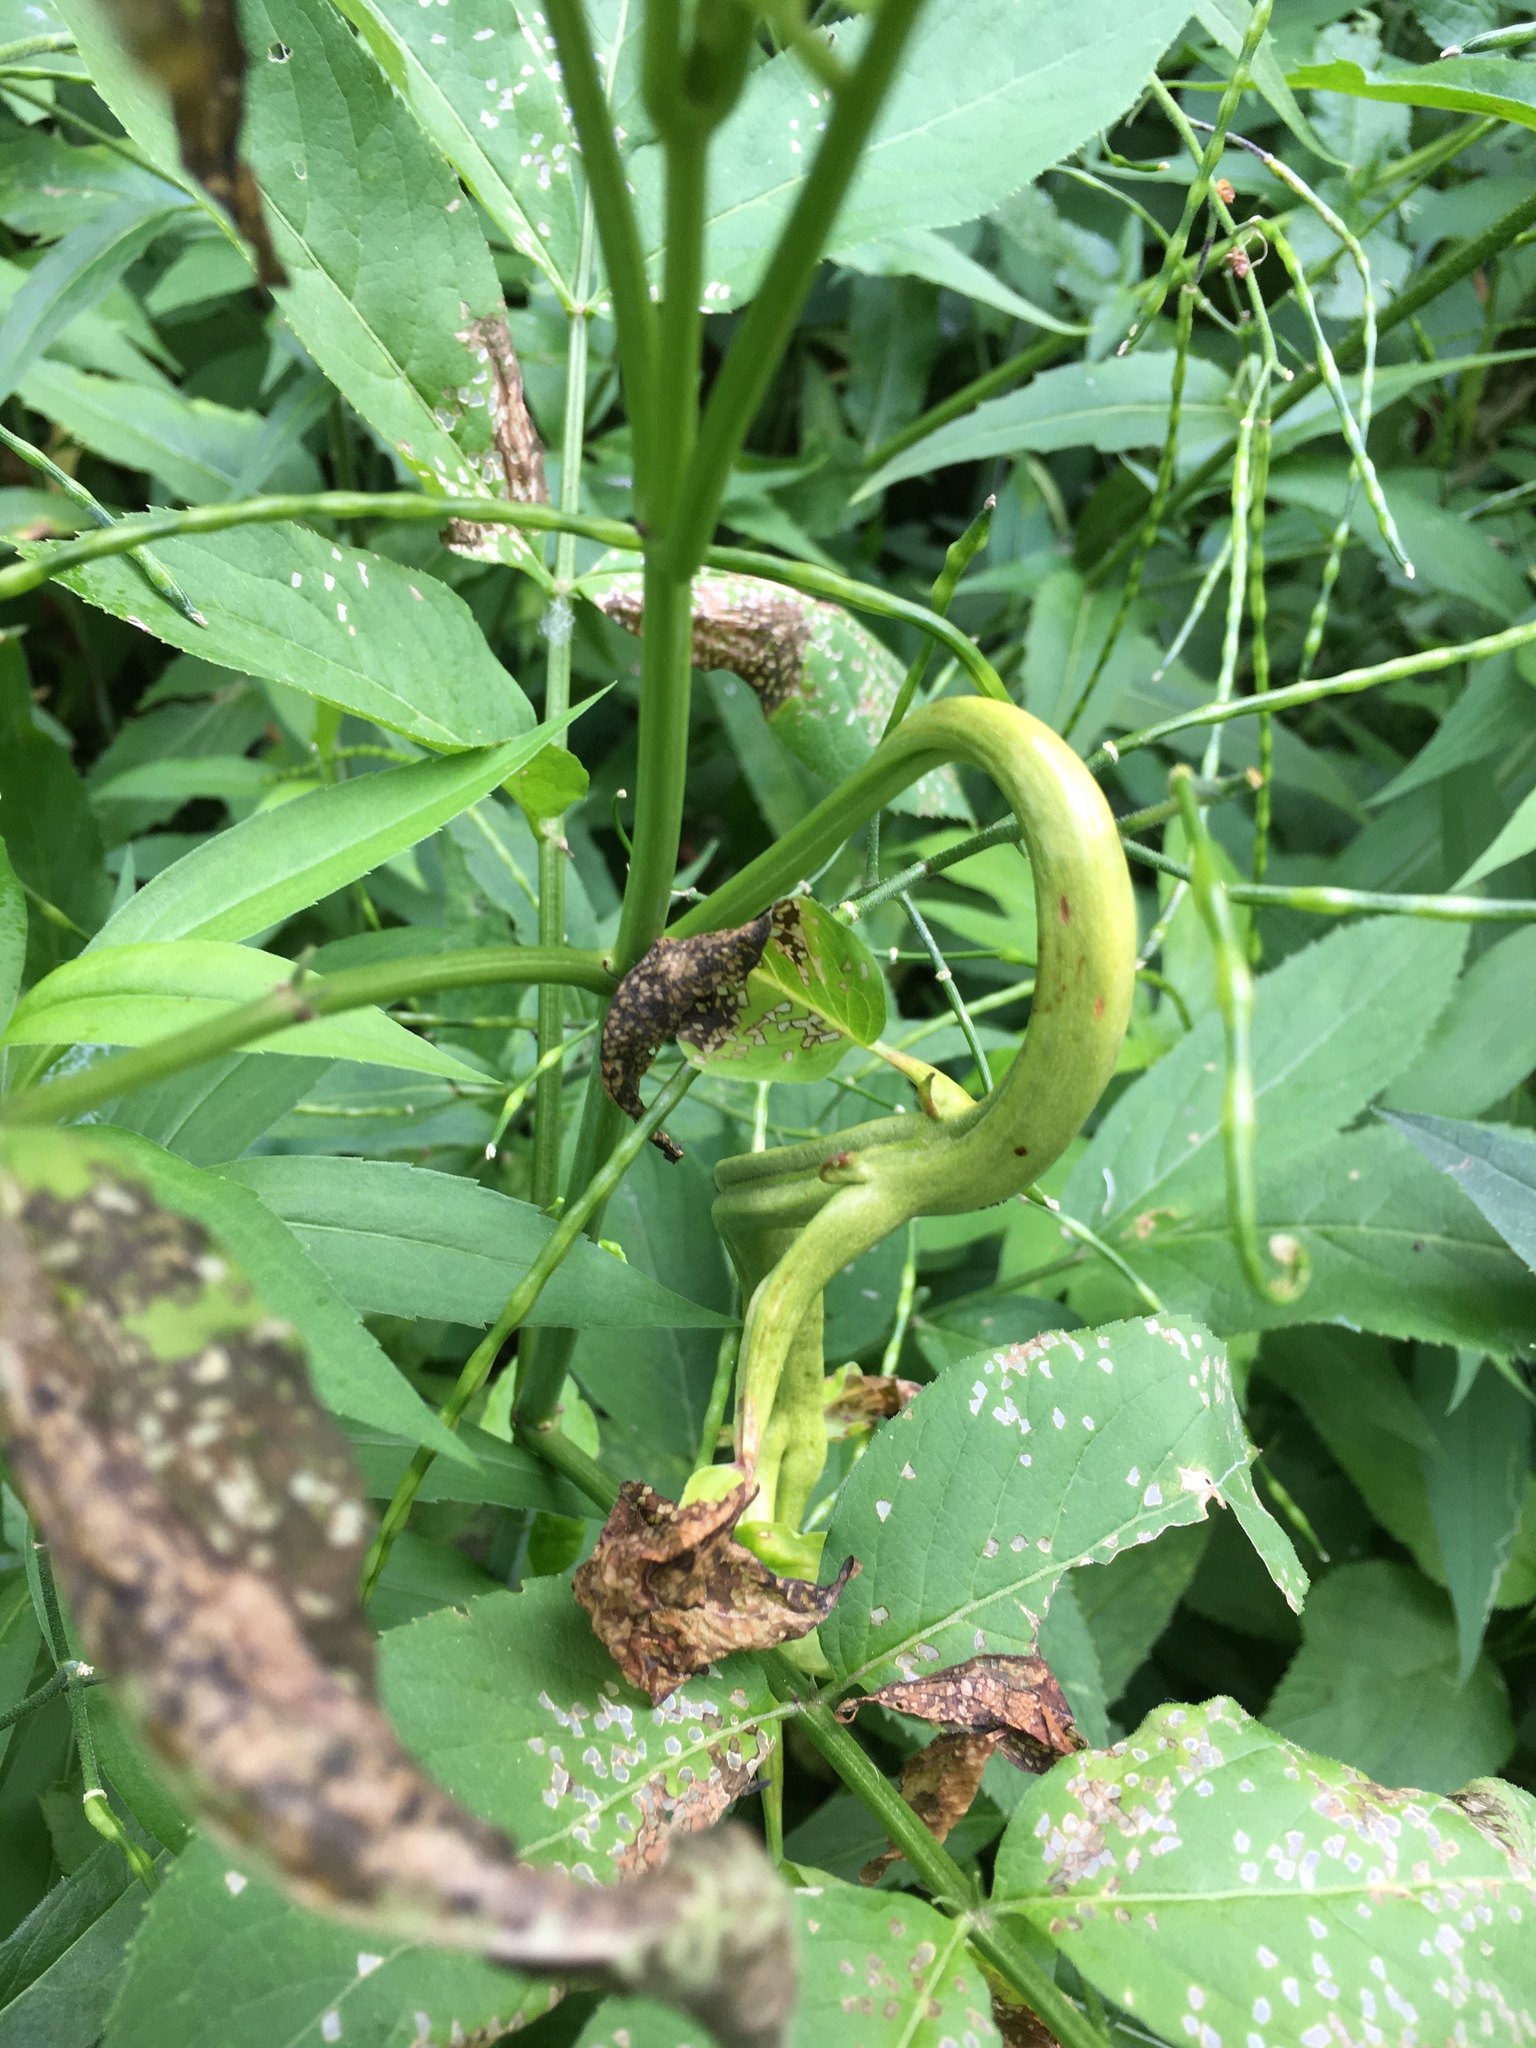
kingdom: Fungi
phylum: Basidiomycota
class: Pucciniomycetes
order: Pucciniales
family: Pucciniaceae
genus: Puccinia
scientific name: Puccinia
